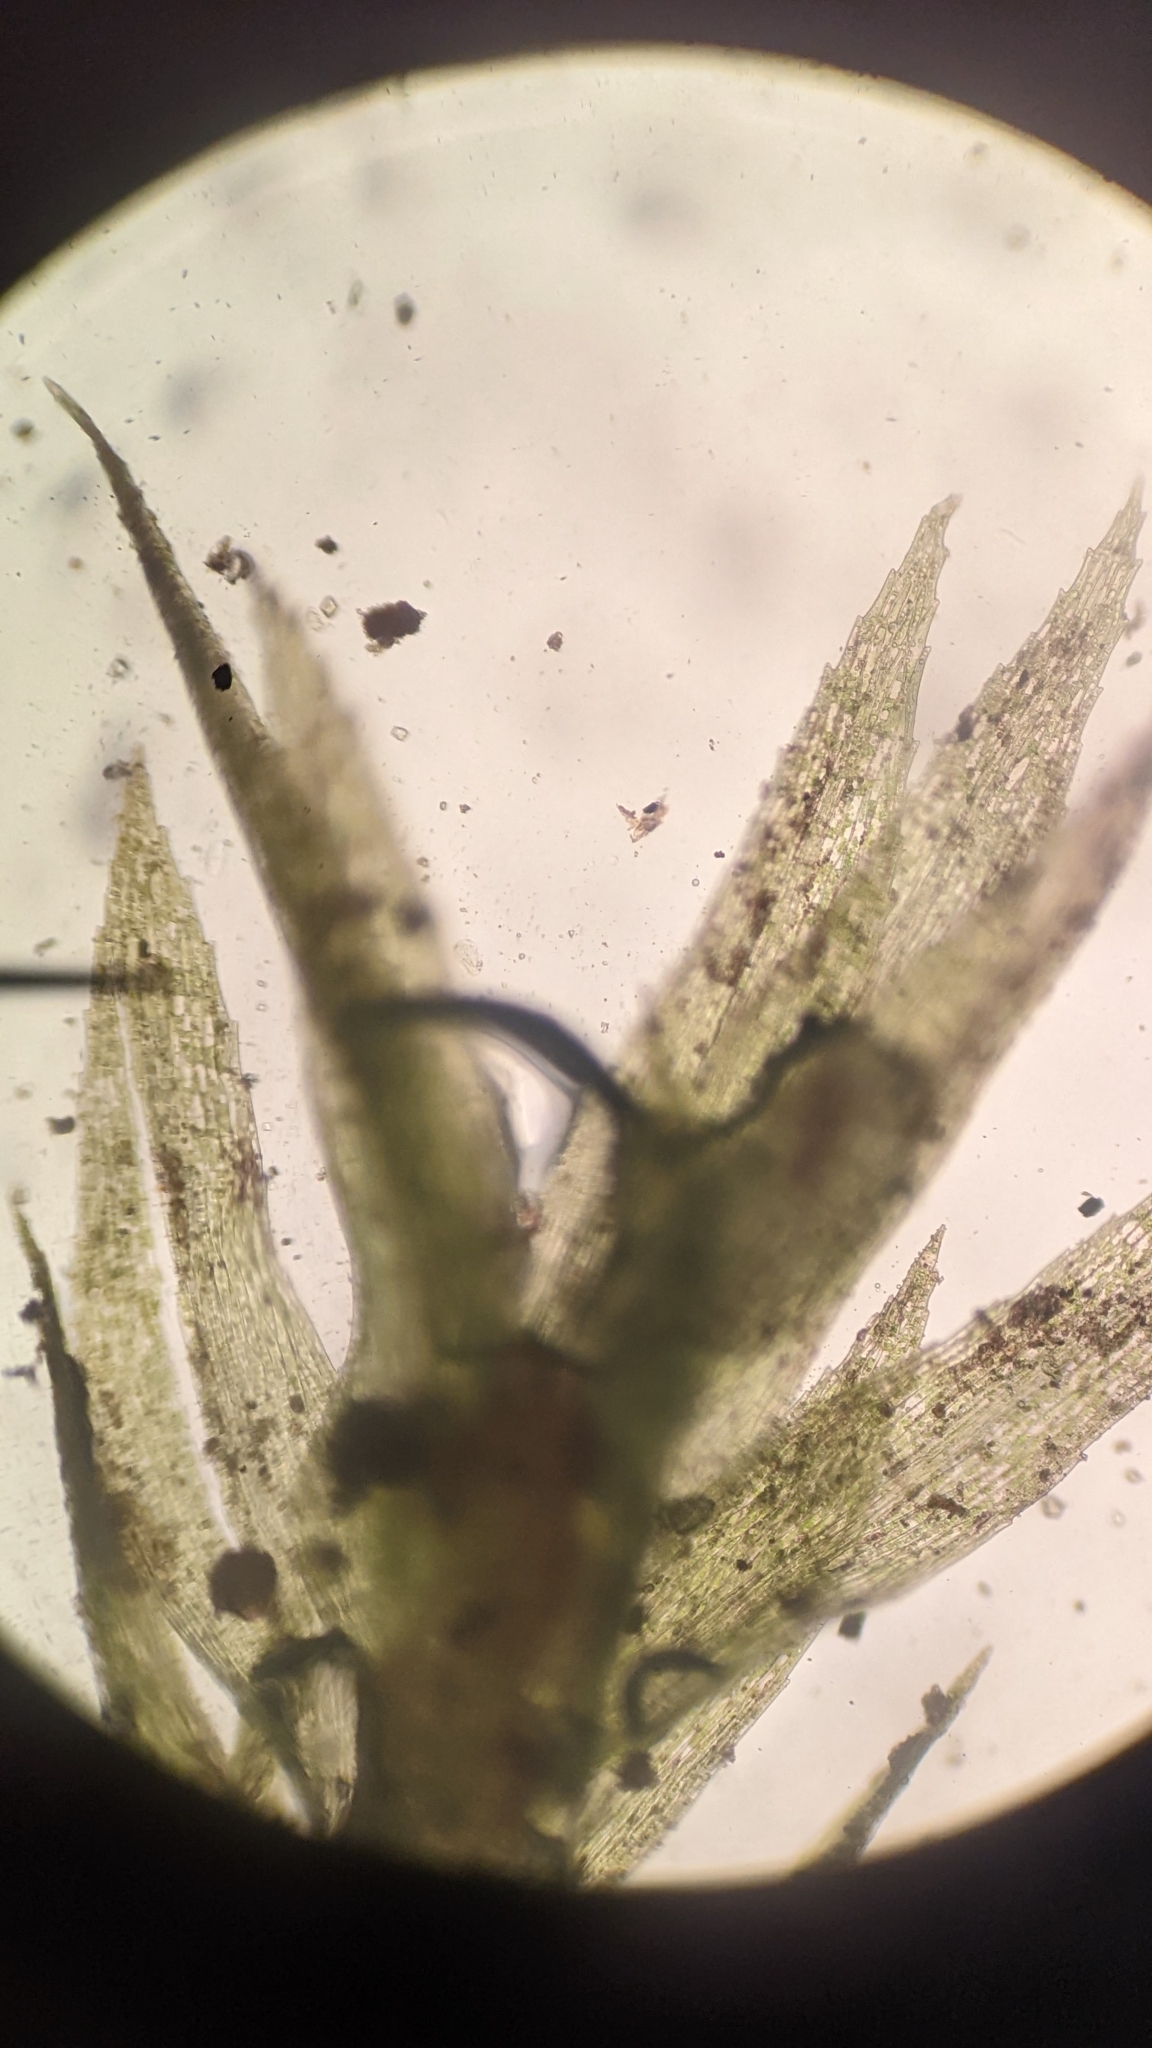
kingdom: Plantae
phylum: Bryophyta
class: Bryopsida
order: Bryales
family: Mniaceae
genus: Pohlia
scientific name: Pohlia wahlenbergii
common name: Wahlenberg's nodding moss
